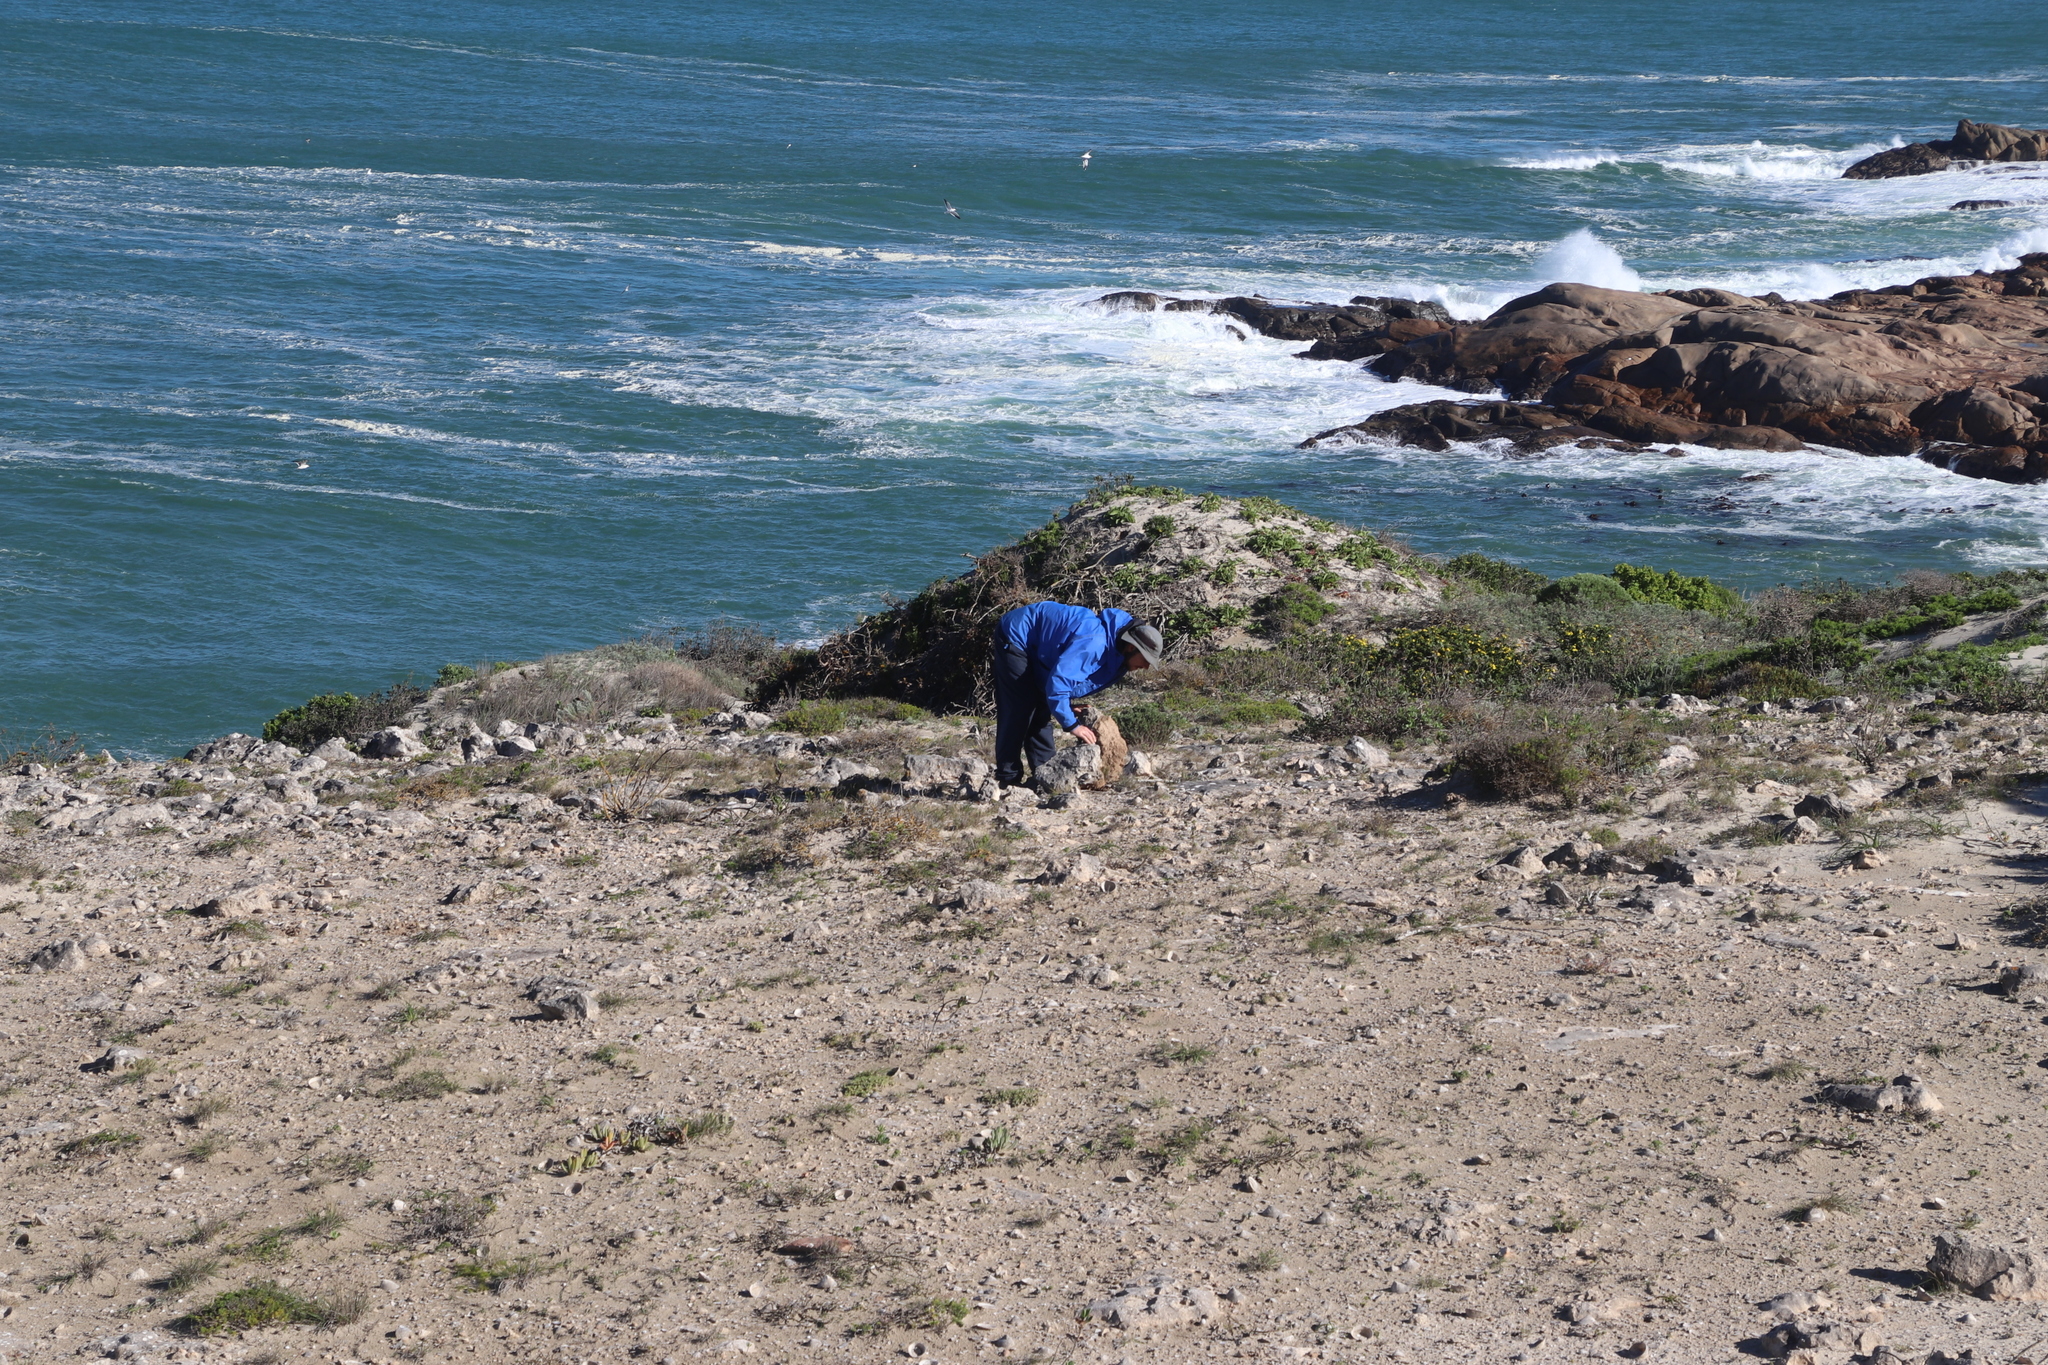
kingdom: Plantae
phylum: Tracheophyta
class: Magnoliopsida
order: Caryophyllales
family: Aizoaceae
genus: Carpobrotus
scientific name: Carpobrotus quadrifidus
